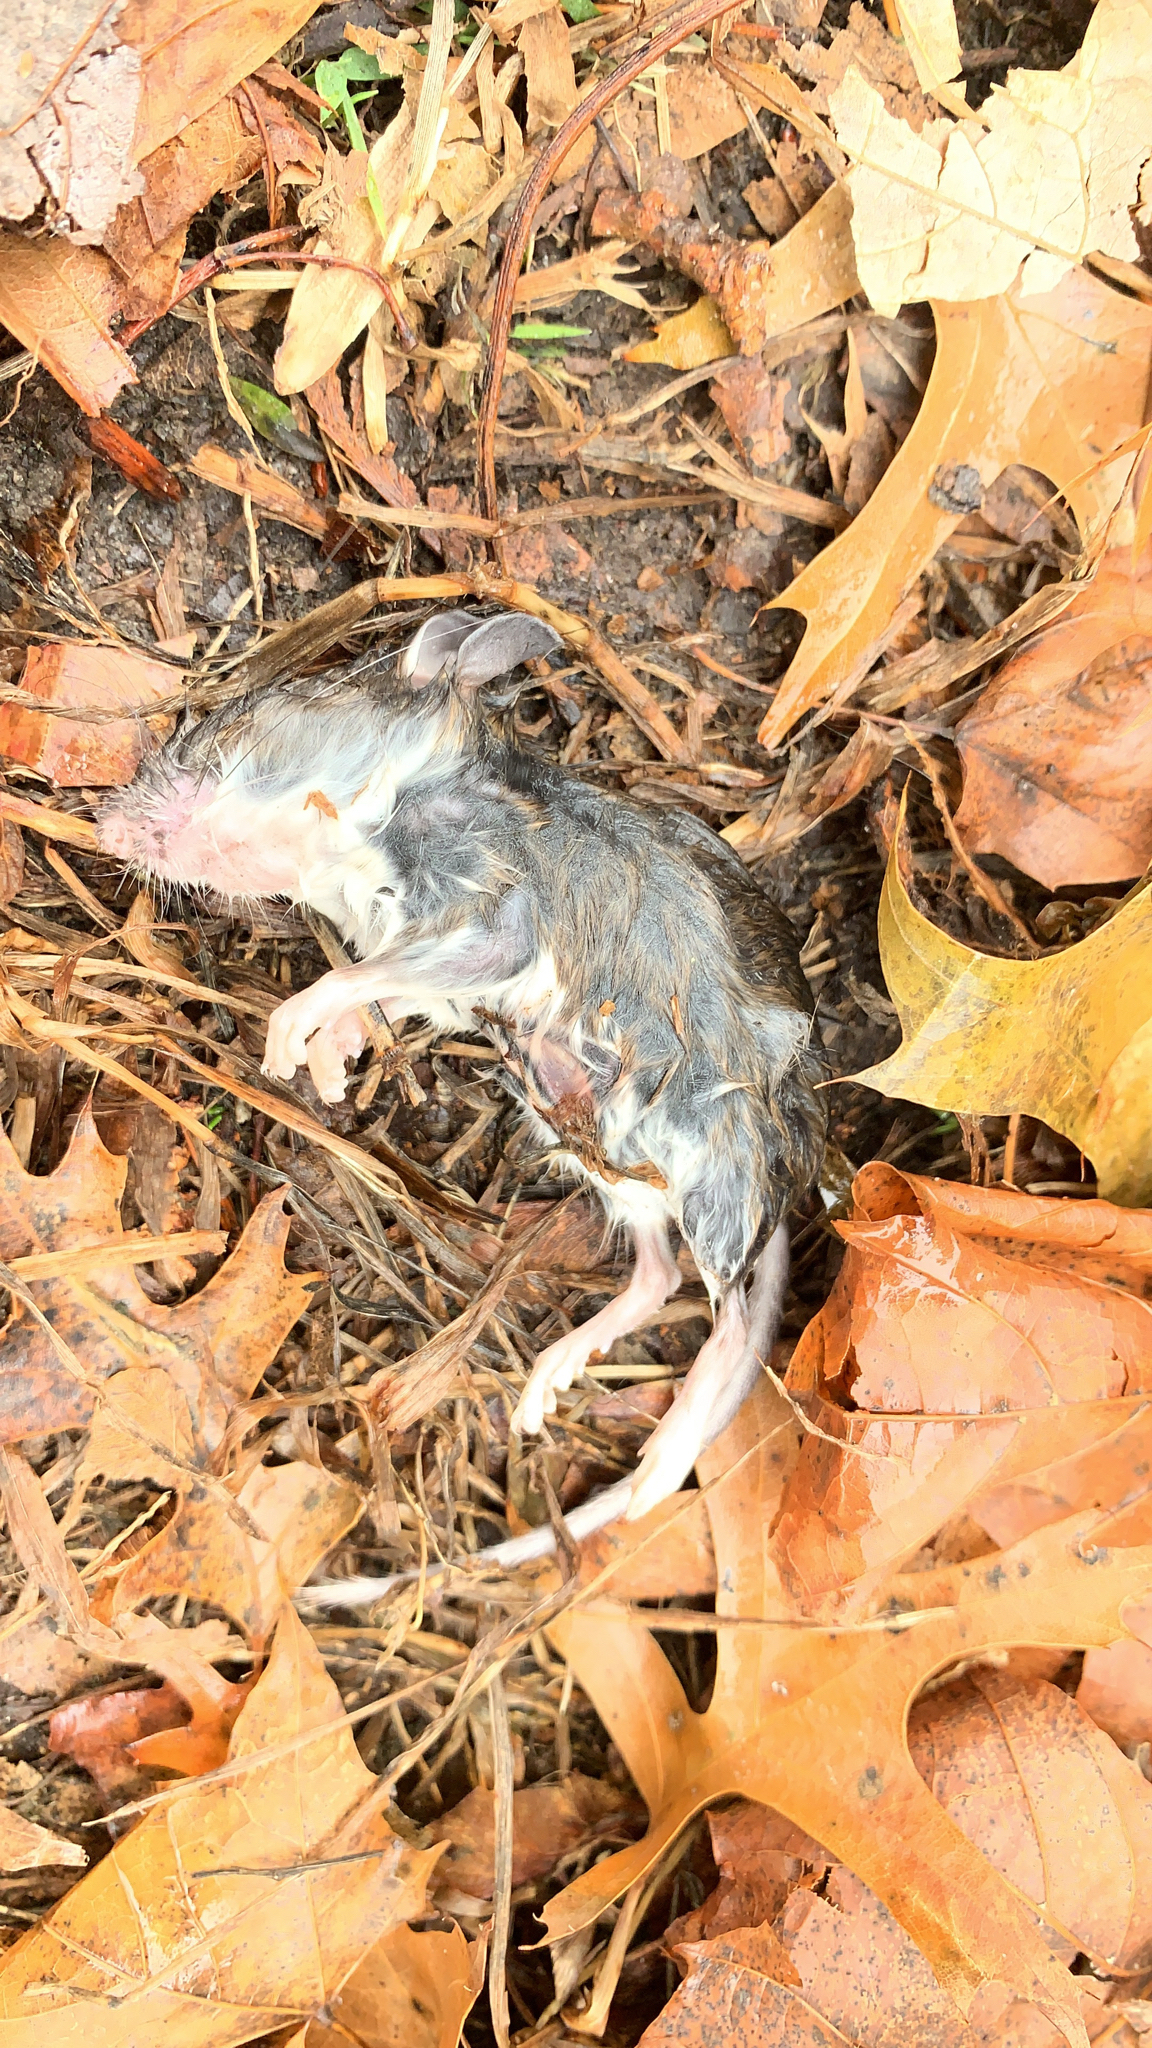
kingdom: Animalia
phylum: Chordata
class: Mammalia
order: Rodentia
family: Cricetidae
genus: Peromyscus
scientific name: Peromyscus
